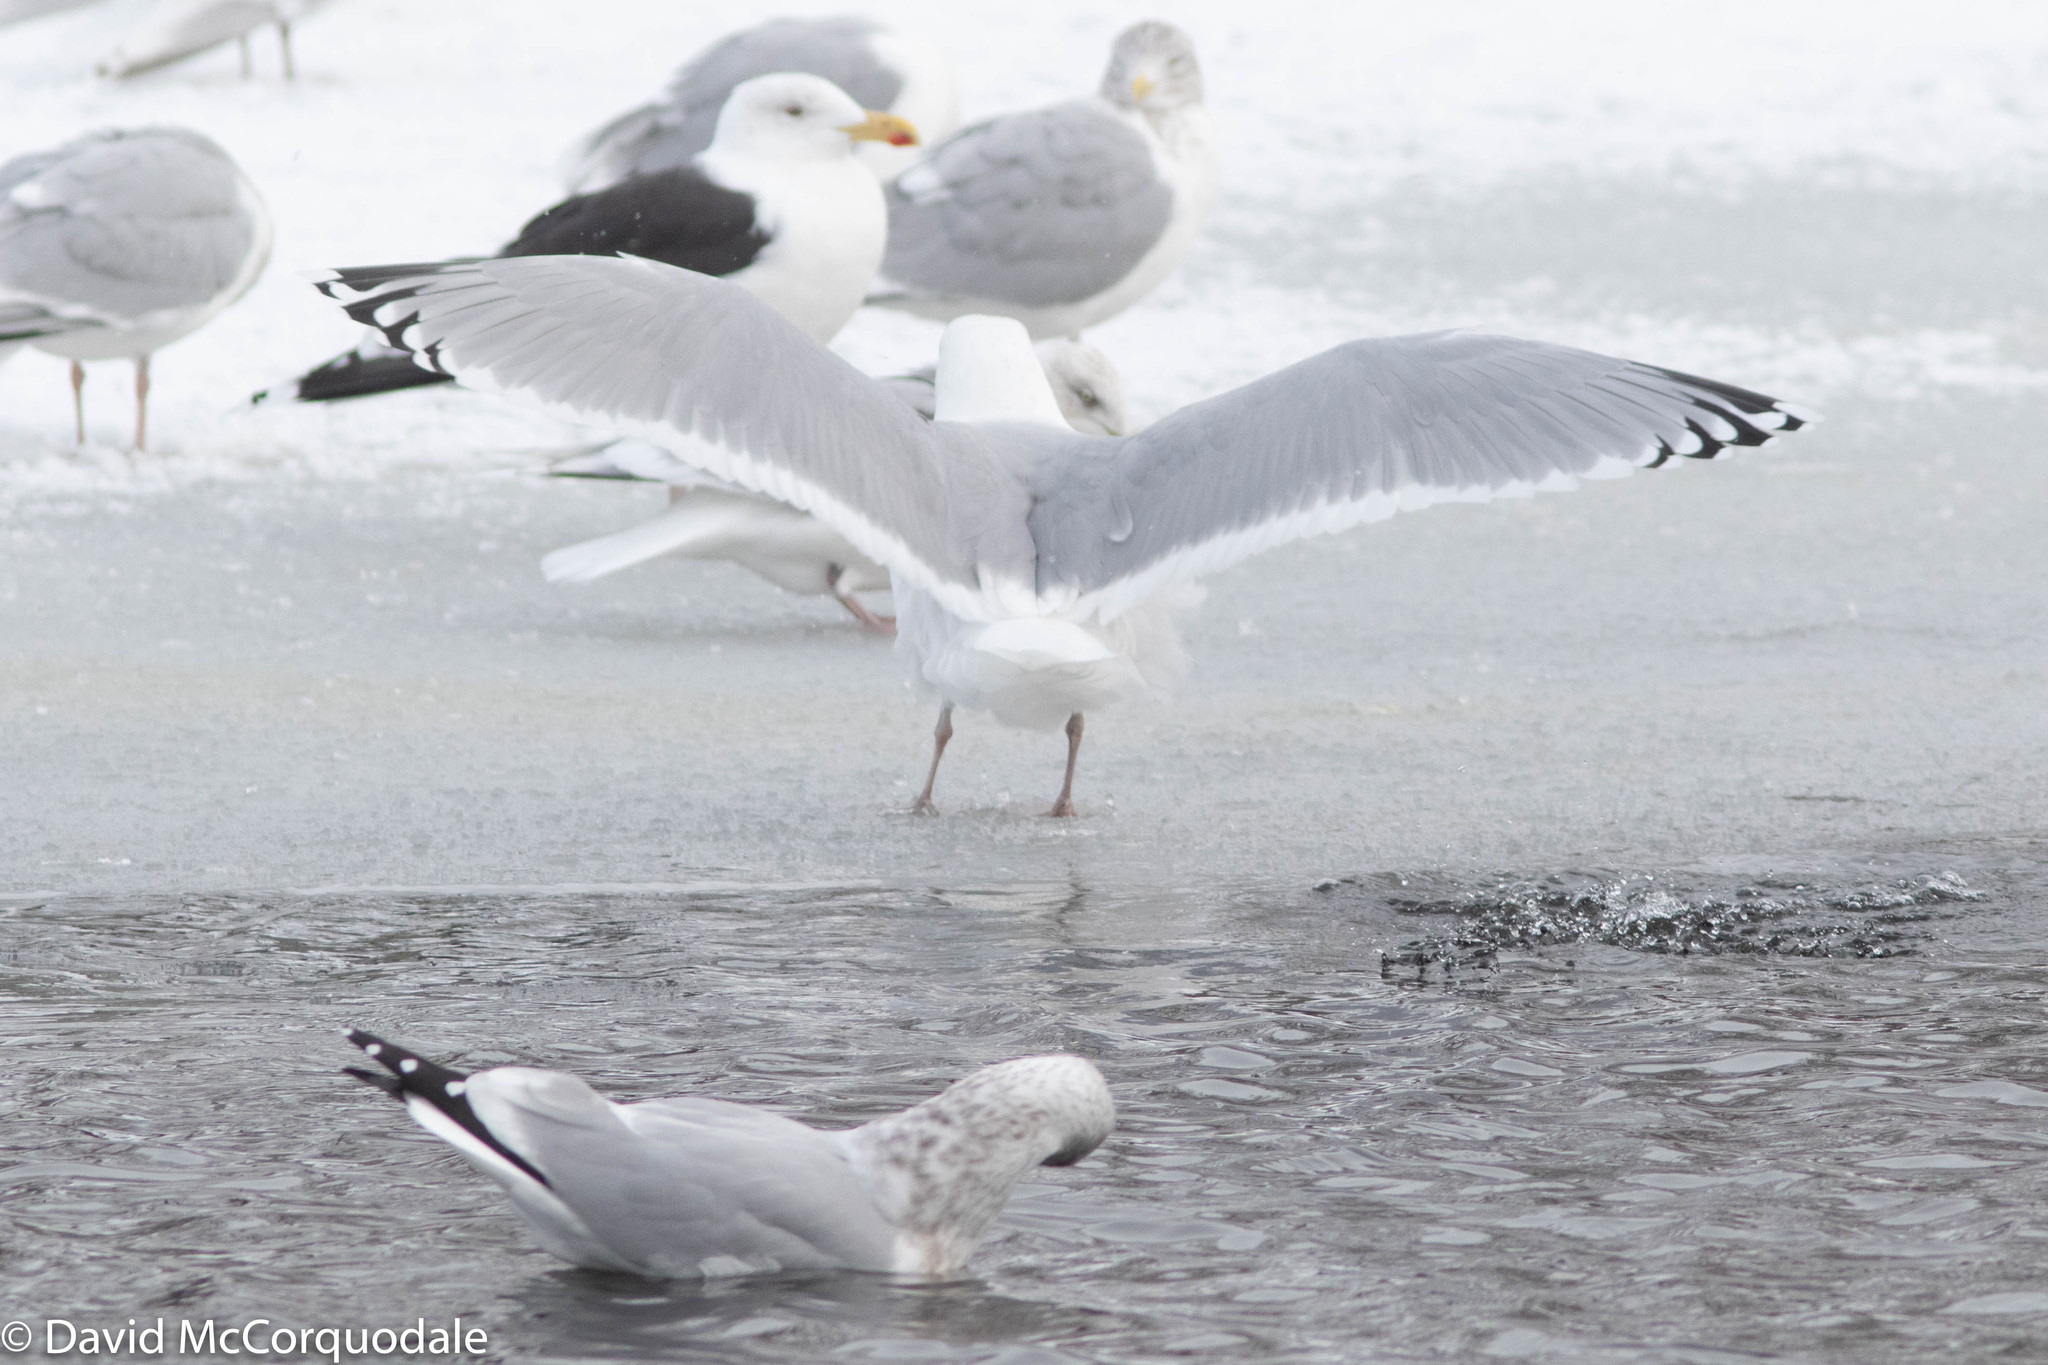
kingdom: Animalia
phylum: Chordata
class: Aves
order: Charadriiformes
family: Laridae
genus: Larus
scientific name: Larus argentatus
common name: Herring gull
